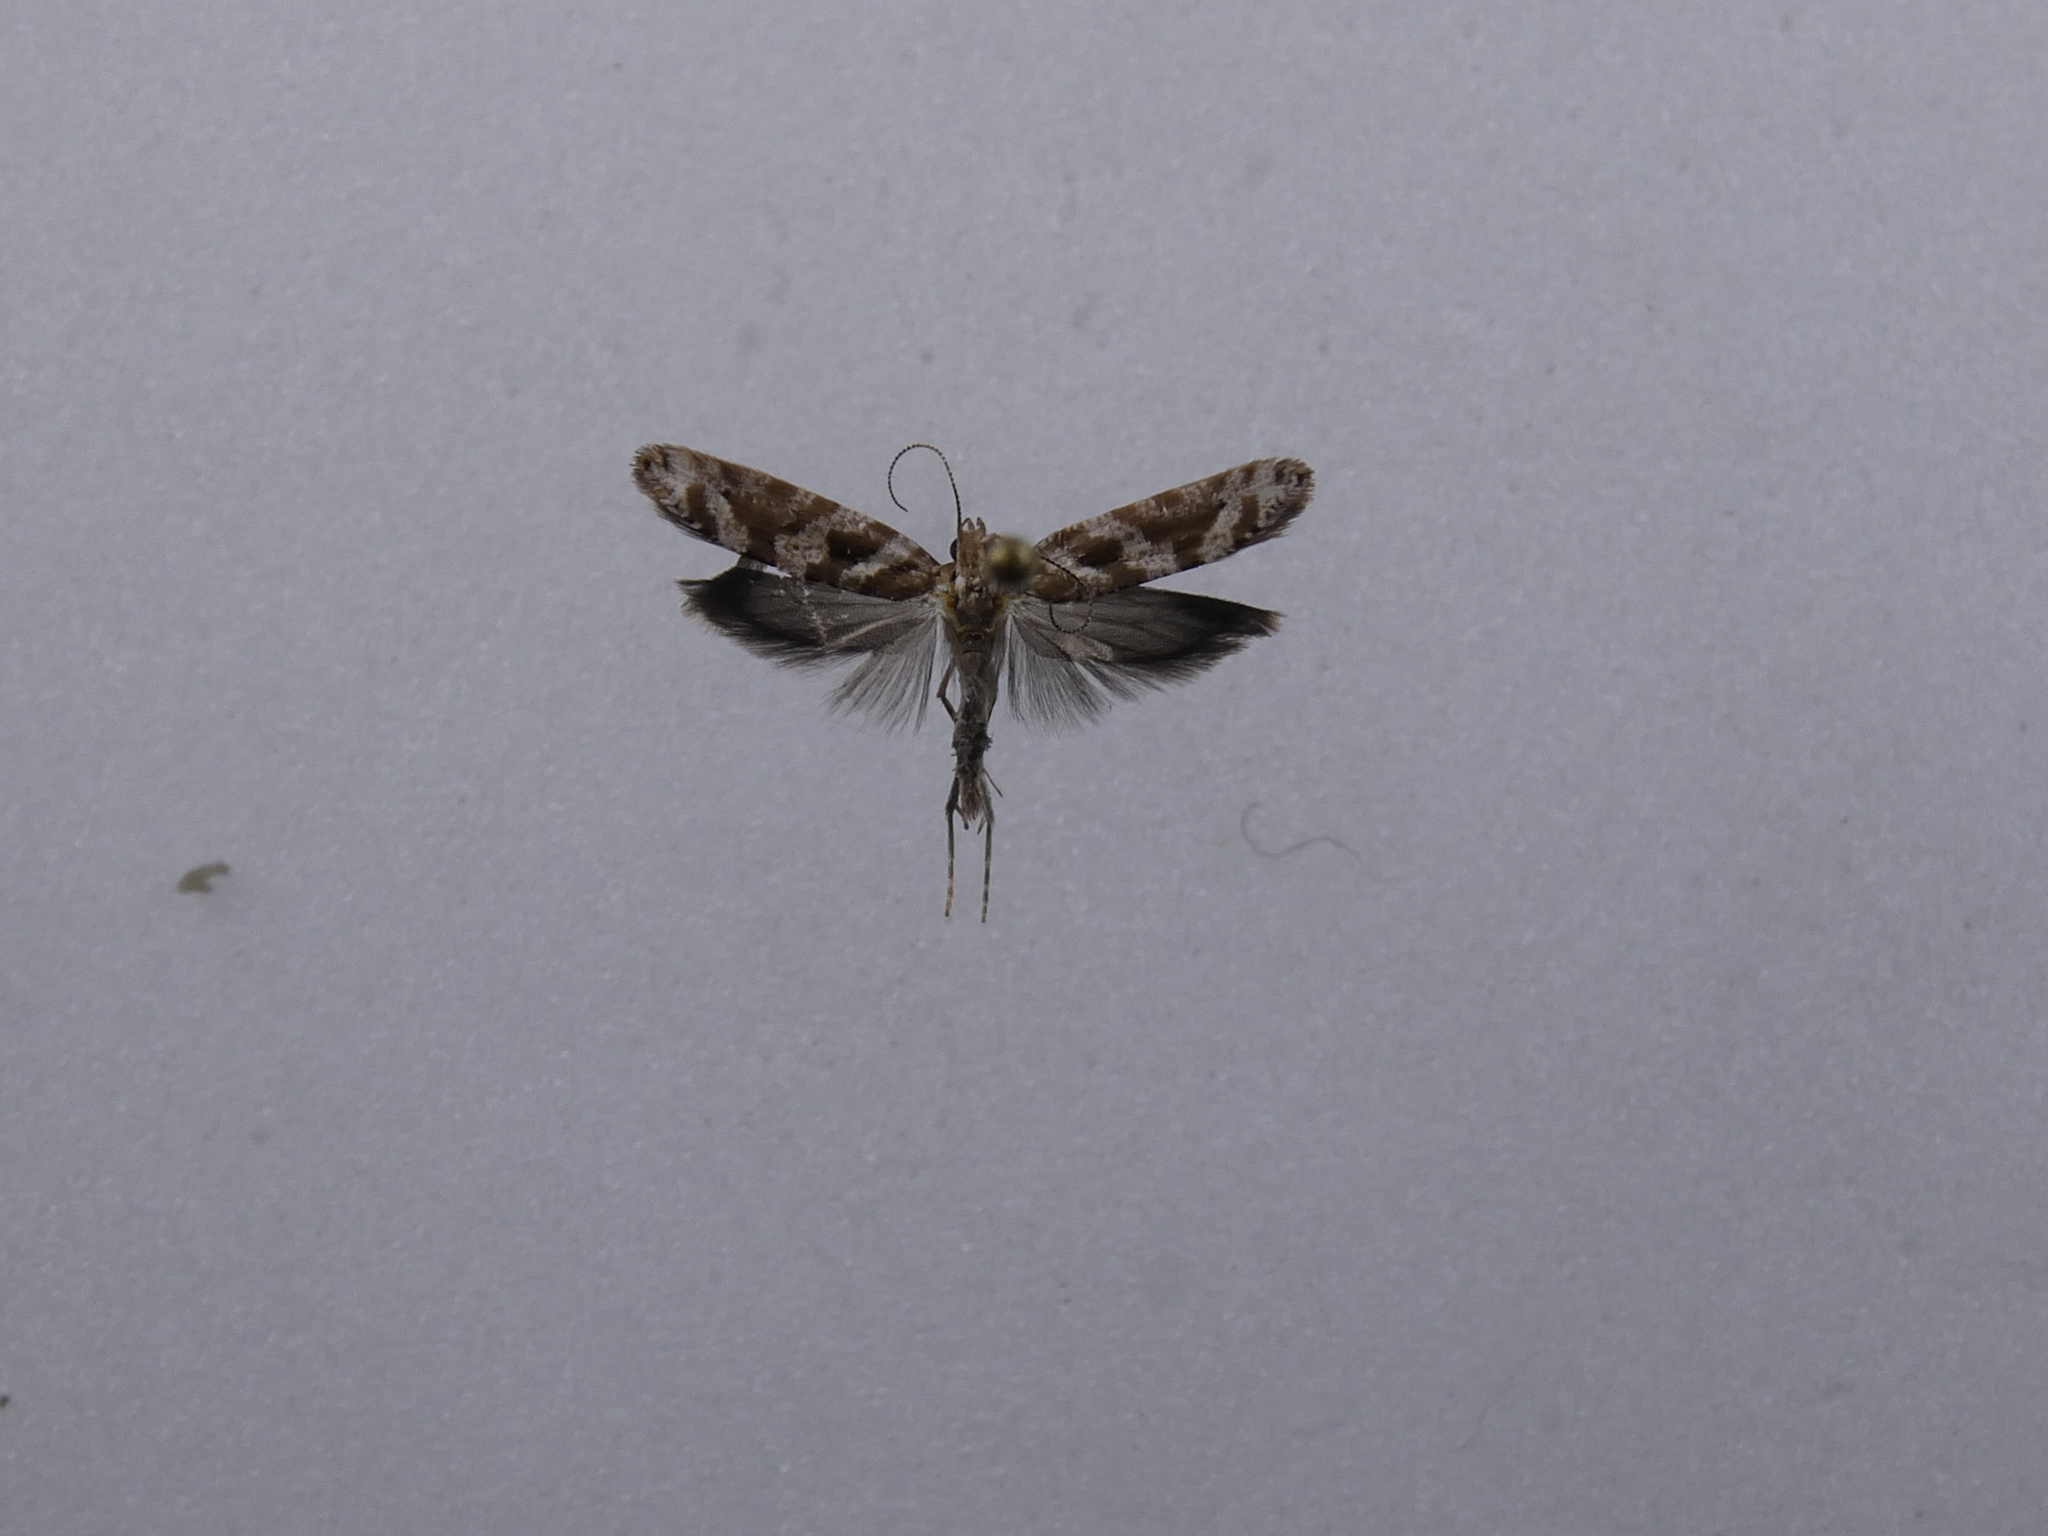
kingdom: Animalia
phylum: Arthropoda
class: Insecta
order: Lepidoptera
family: Glyphipterigidae
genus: Chrysorthenches
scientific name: Chrysorthenches porphyritis
